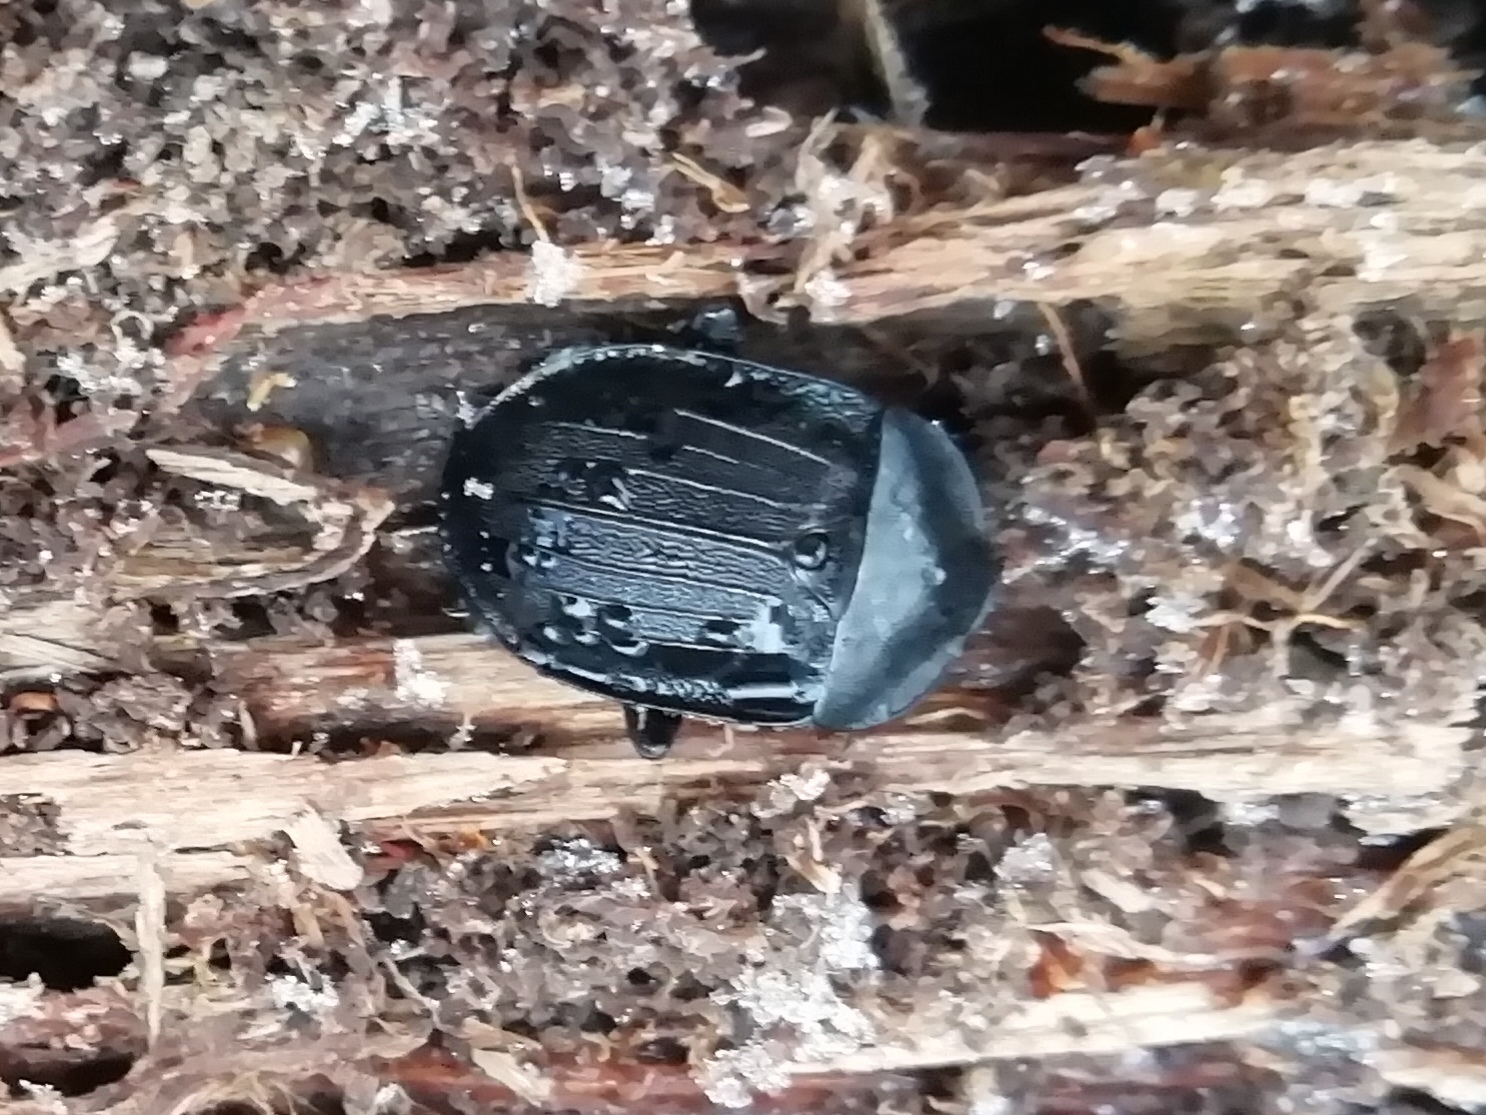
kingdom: Animalia
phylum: Arthropoda
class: Insecta
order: Coleoptera
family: Staphylinidae
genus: Silpha
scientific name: Silpha atrata
